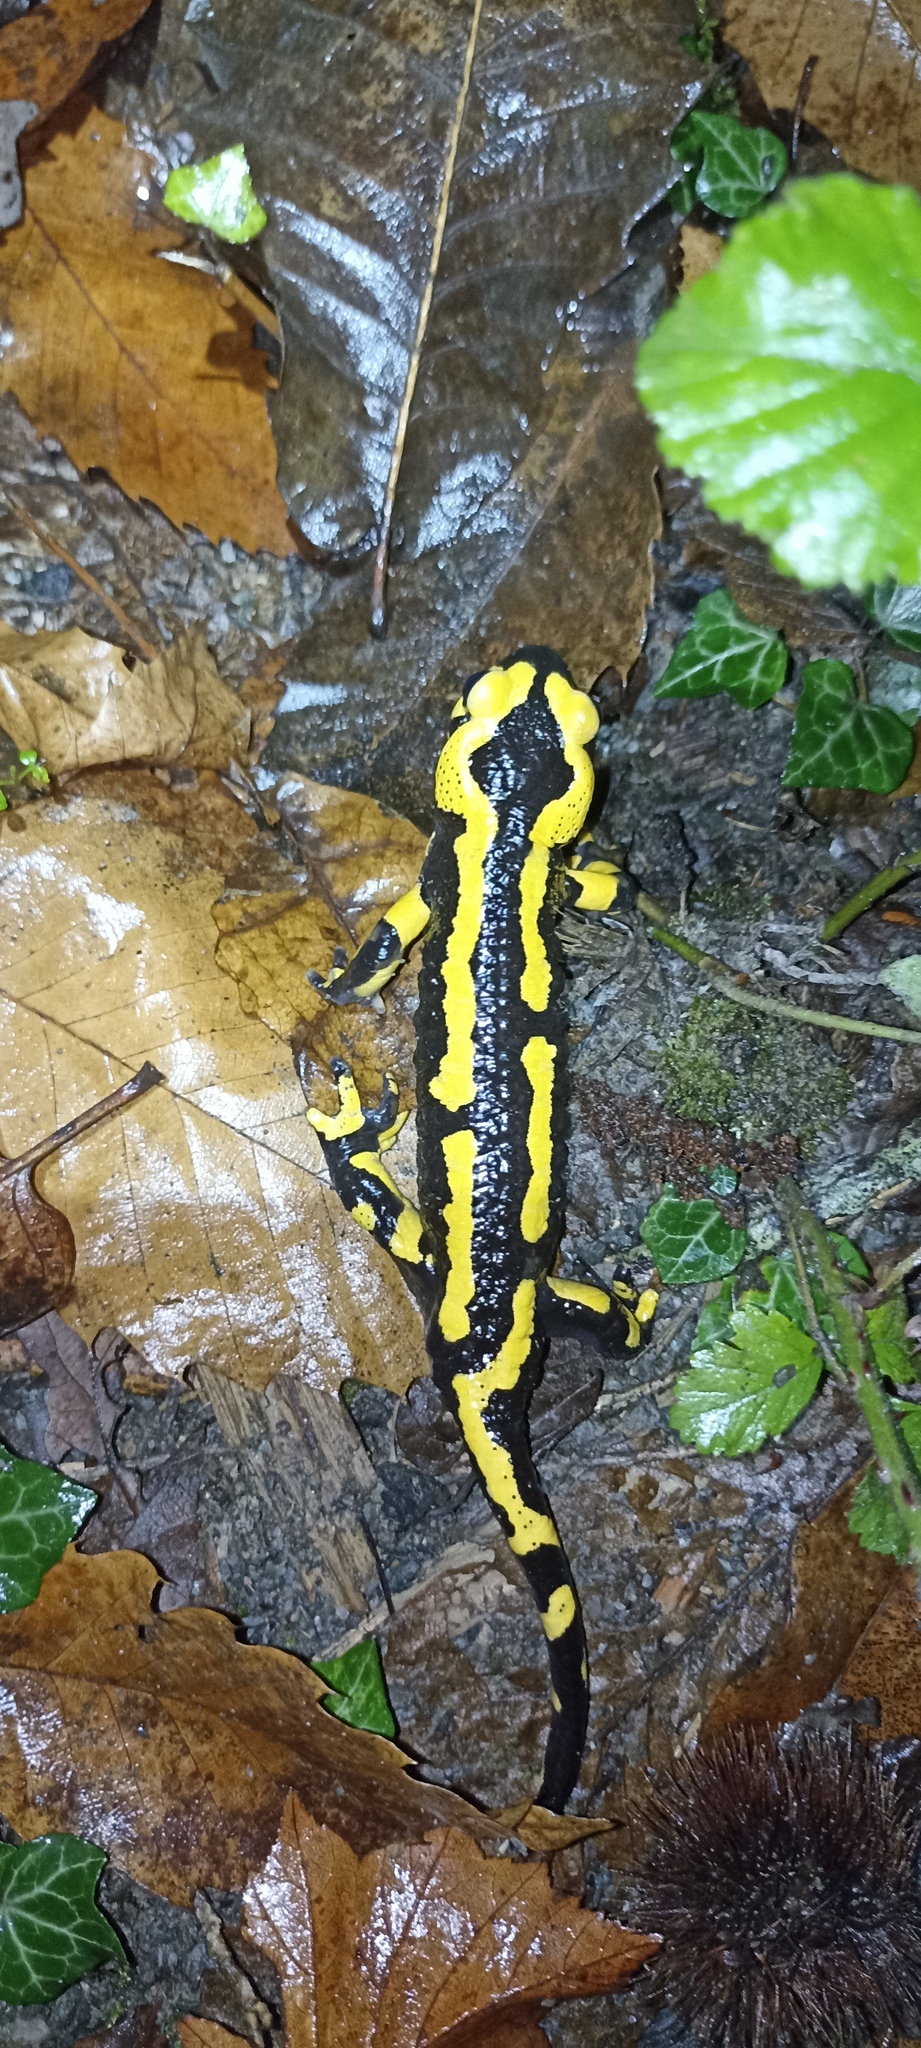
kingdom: Animalia
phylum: Chordata
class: Amphibia
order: Caudata
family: Salamandridae
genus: Salamandra
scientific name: Salamandra salamandra
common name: Fire salamander
